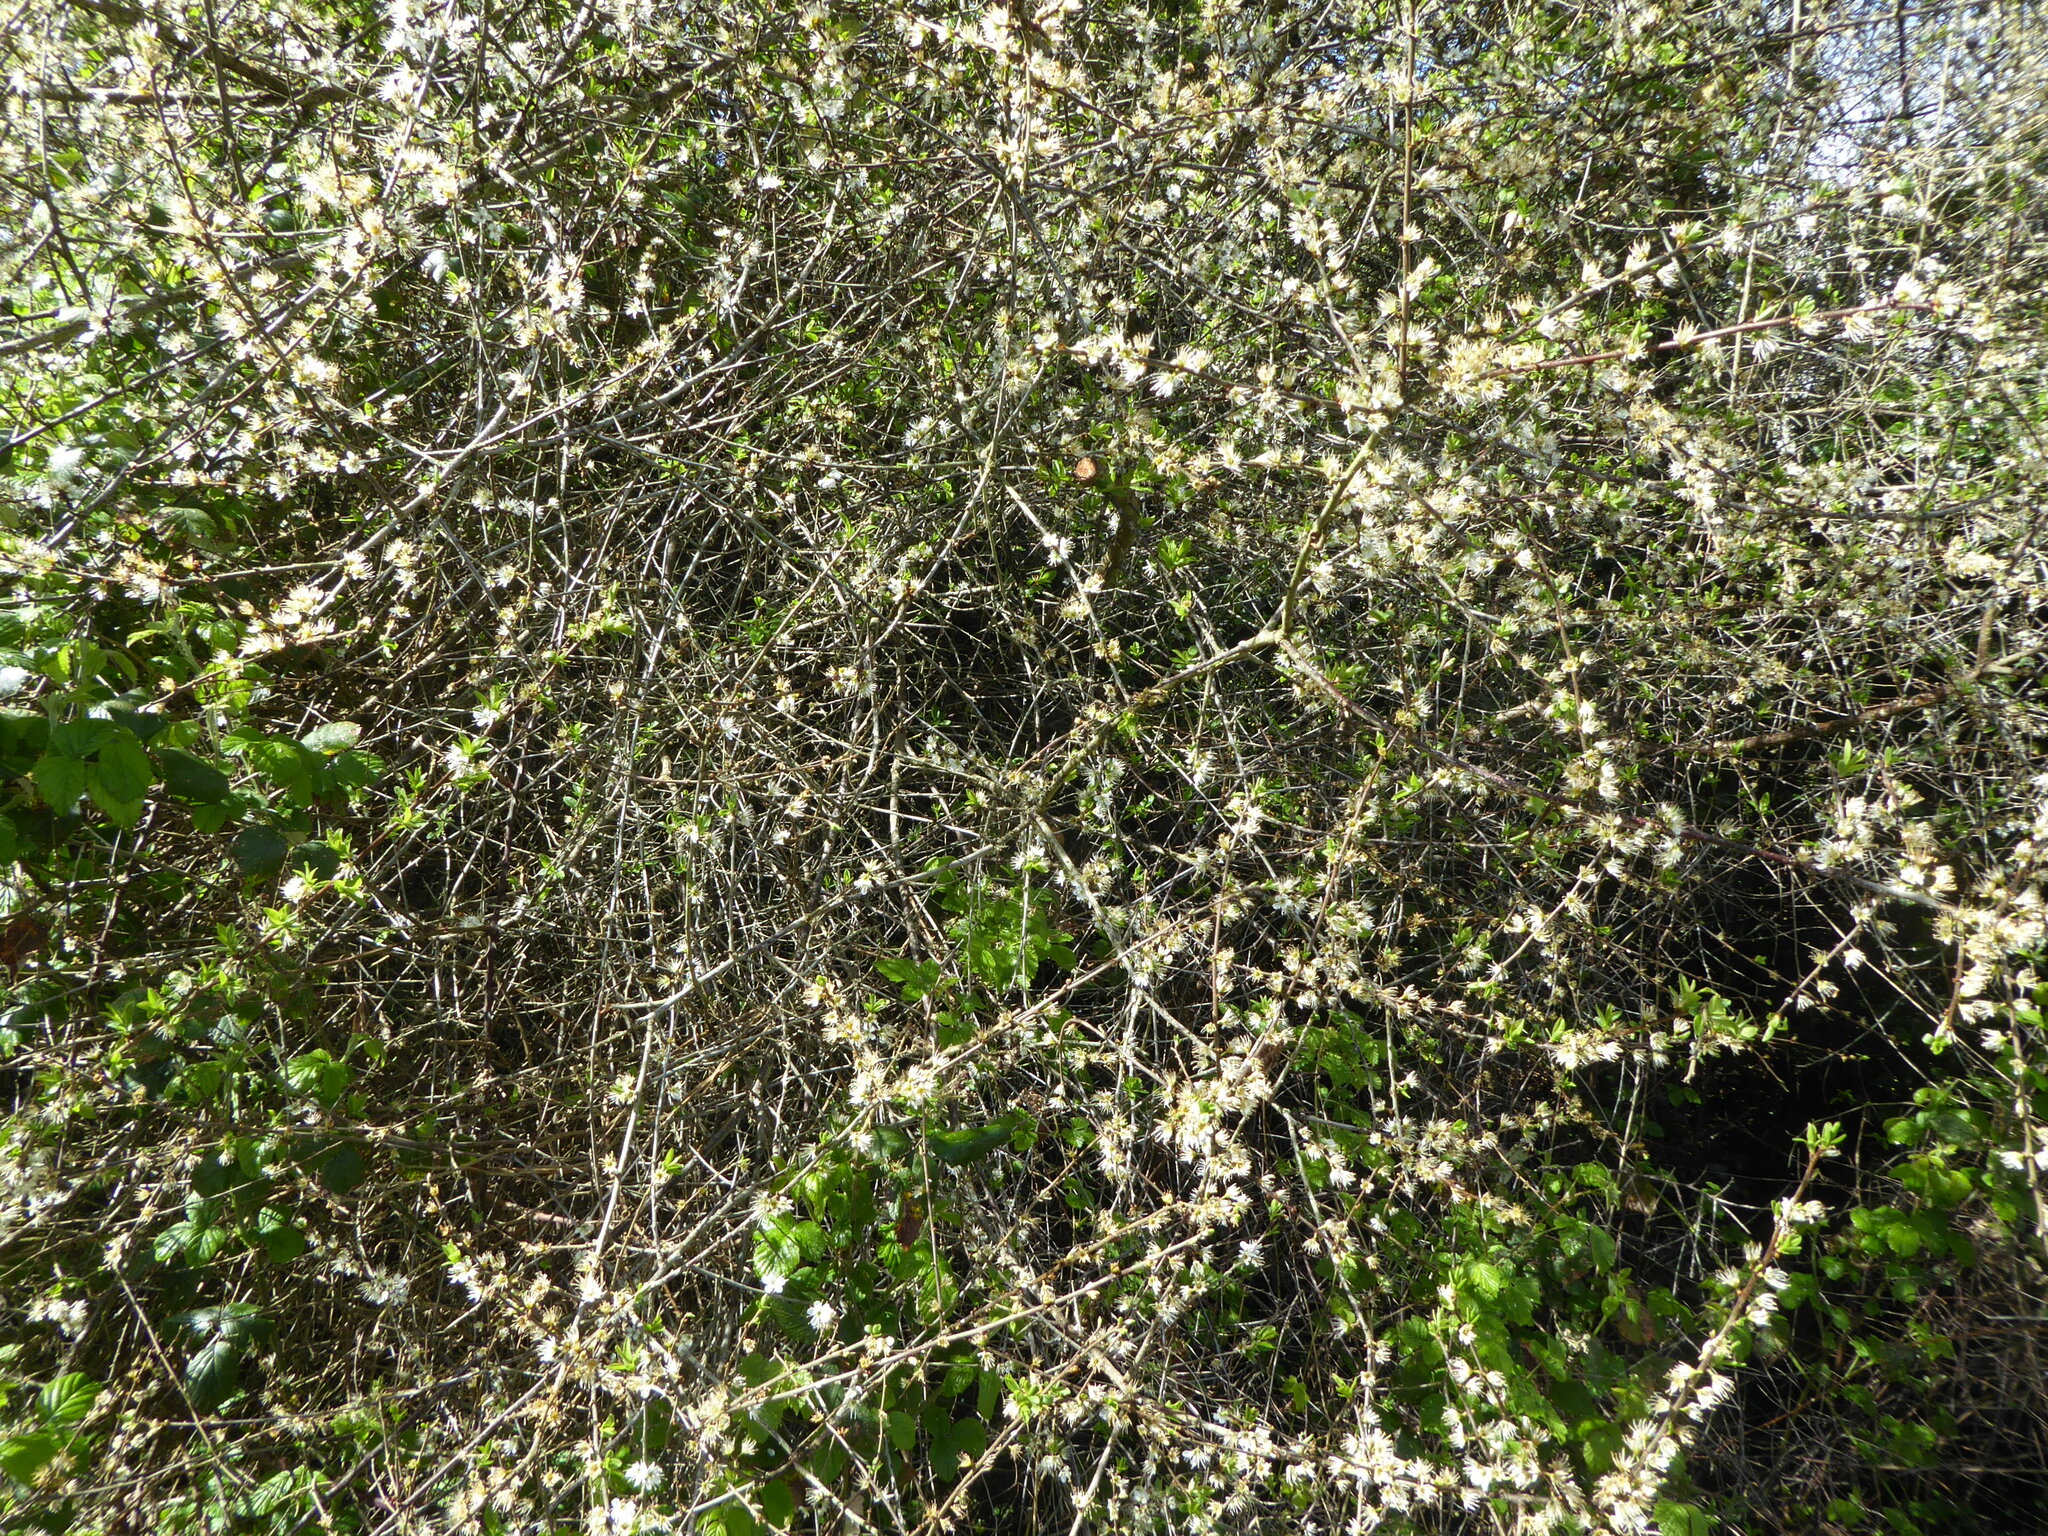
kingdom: Plantae
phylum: Tracheophyta
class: Magnoliopsida
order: Rosales
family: Rosaceae
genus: Prunus
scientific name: Prunus spinosa
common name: Blackthorn
